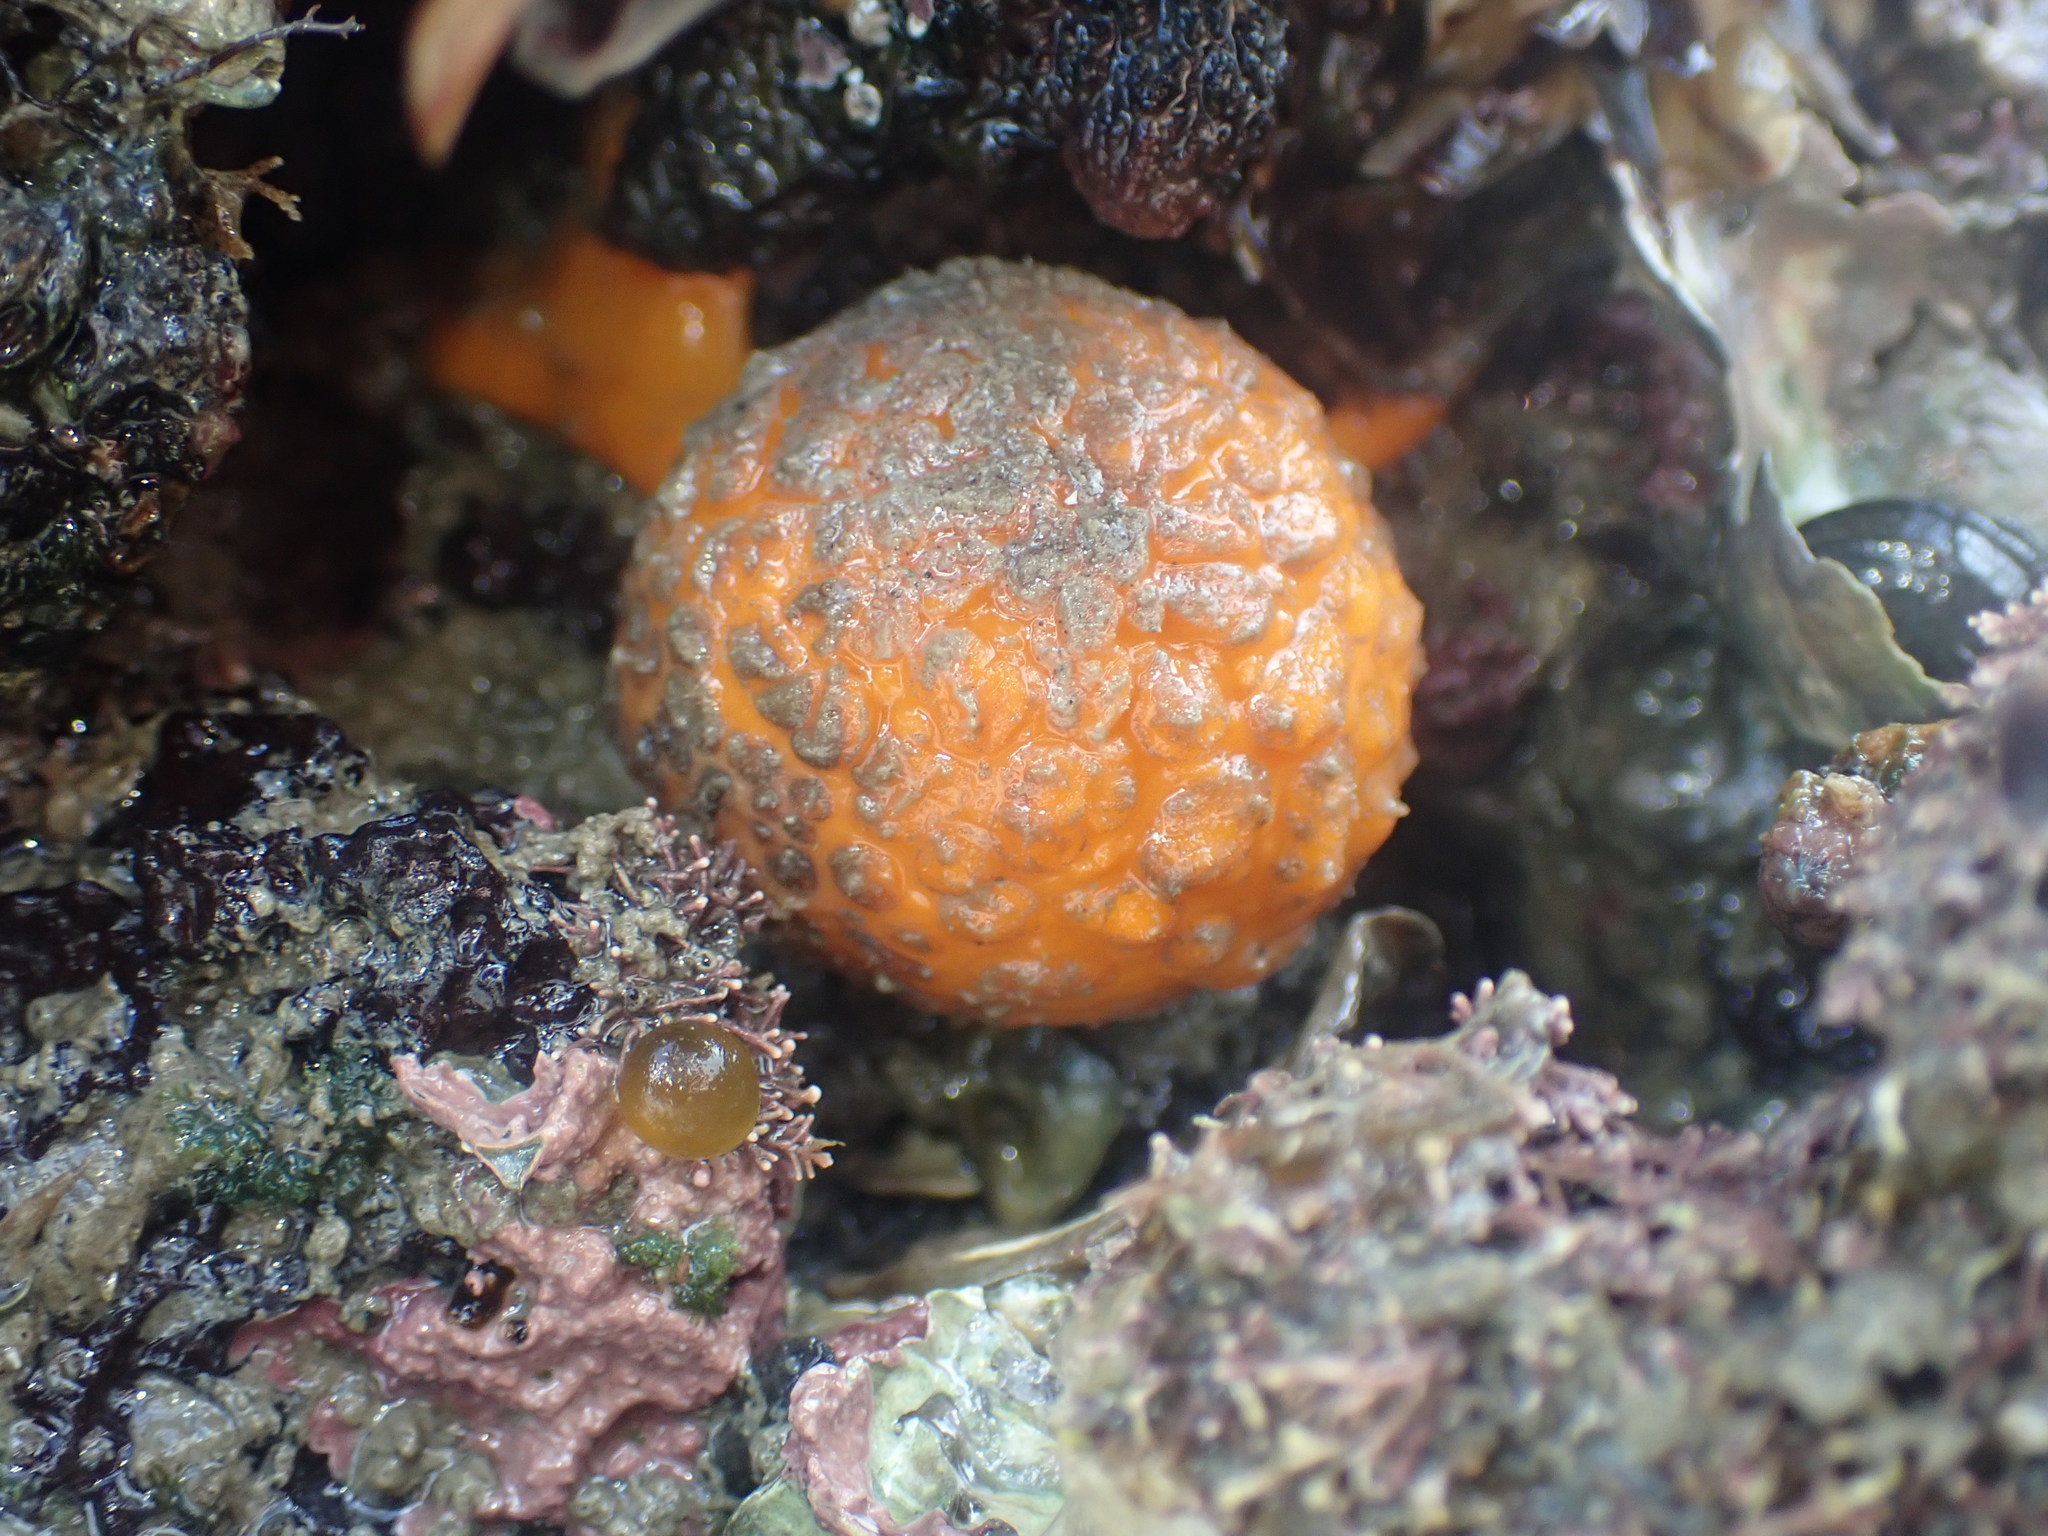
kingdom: Animalia
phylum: Porifera
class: Demospongiae
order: Tethyida
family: Tethyidae
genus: Tethya
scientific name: Tethya burtoni
